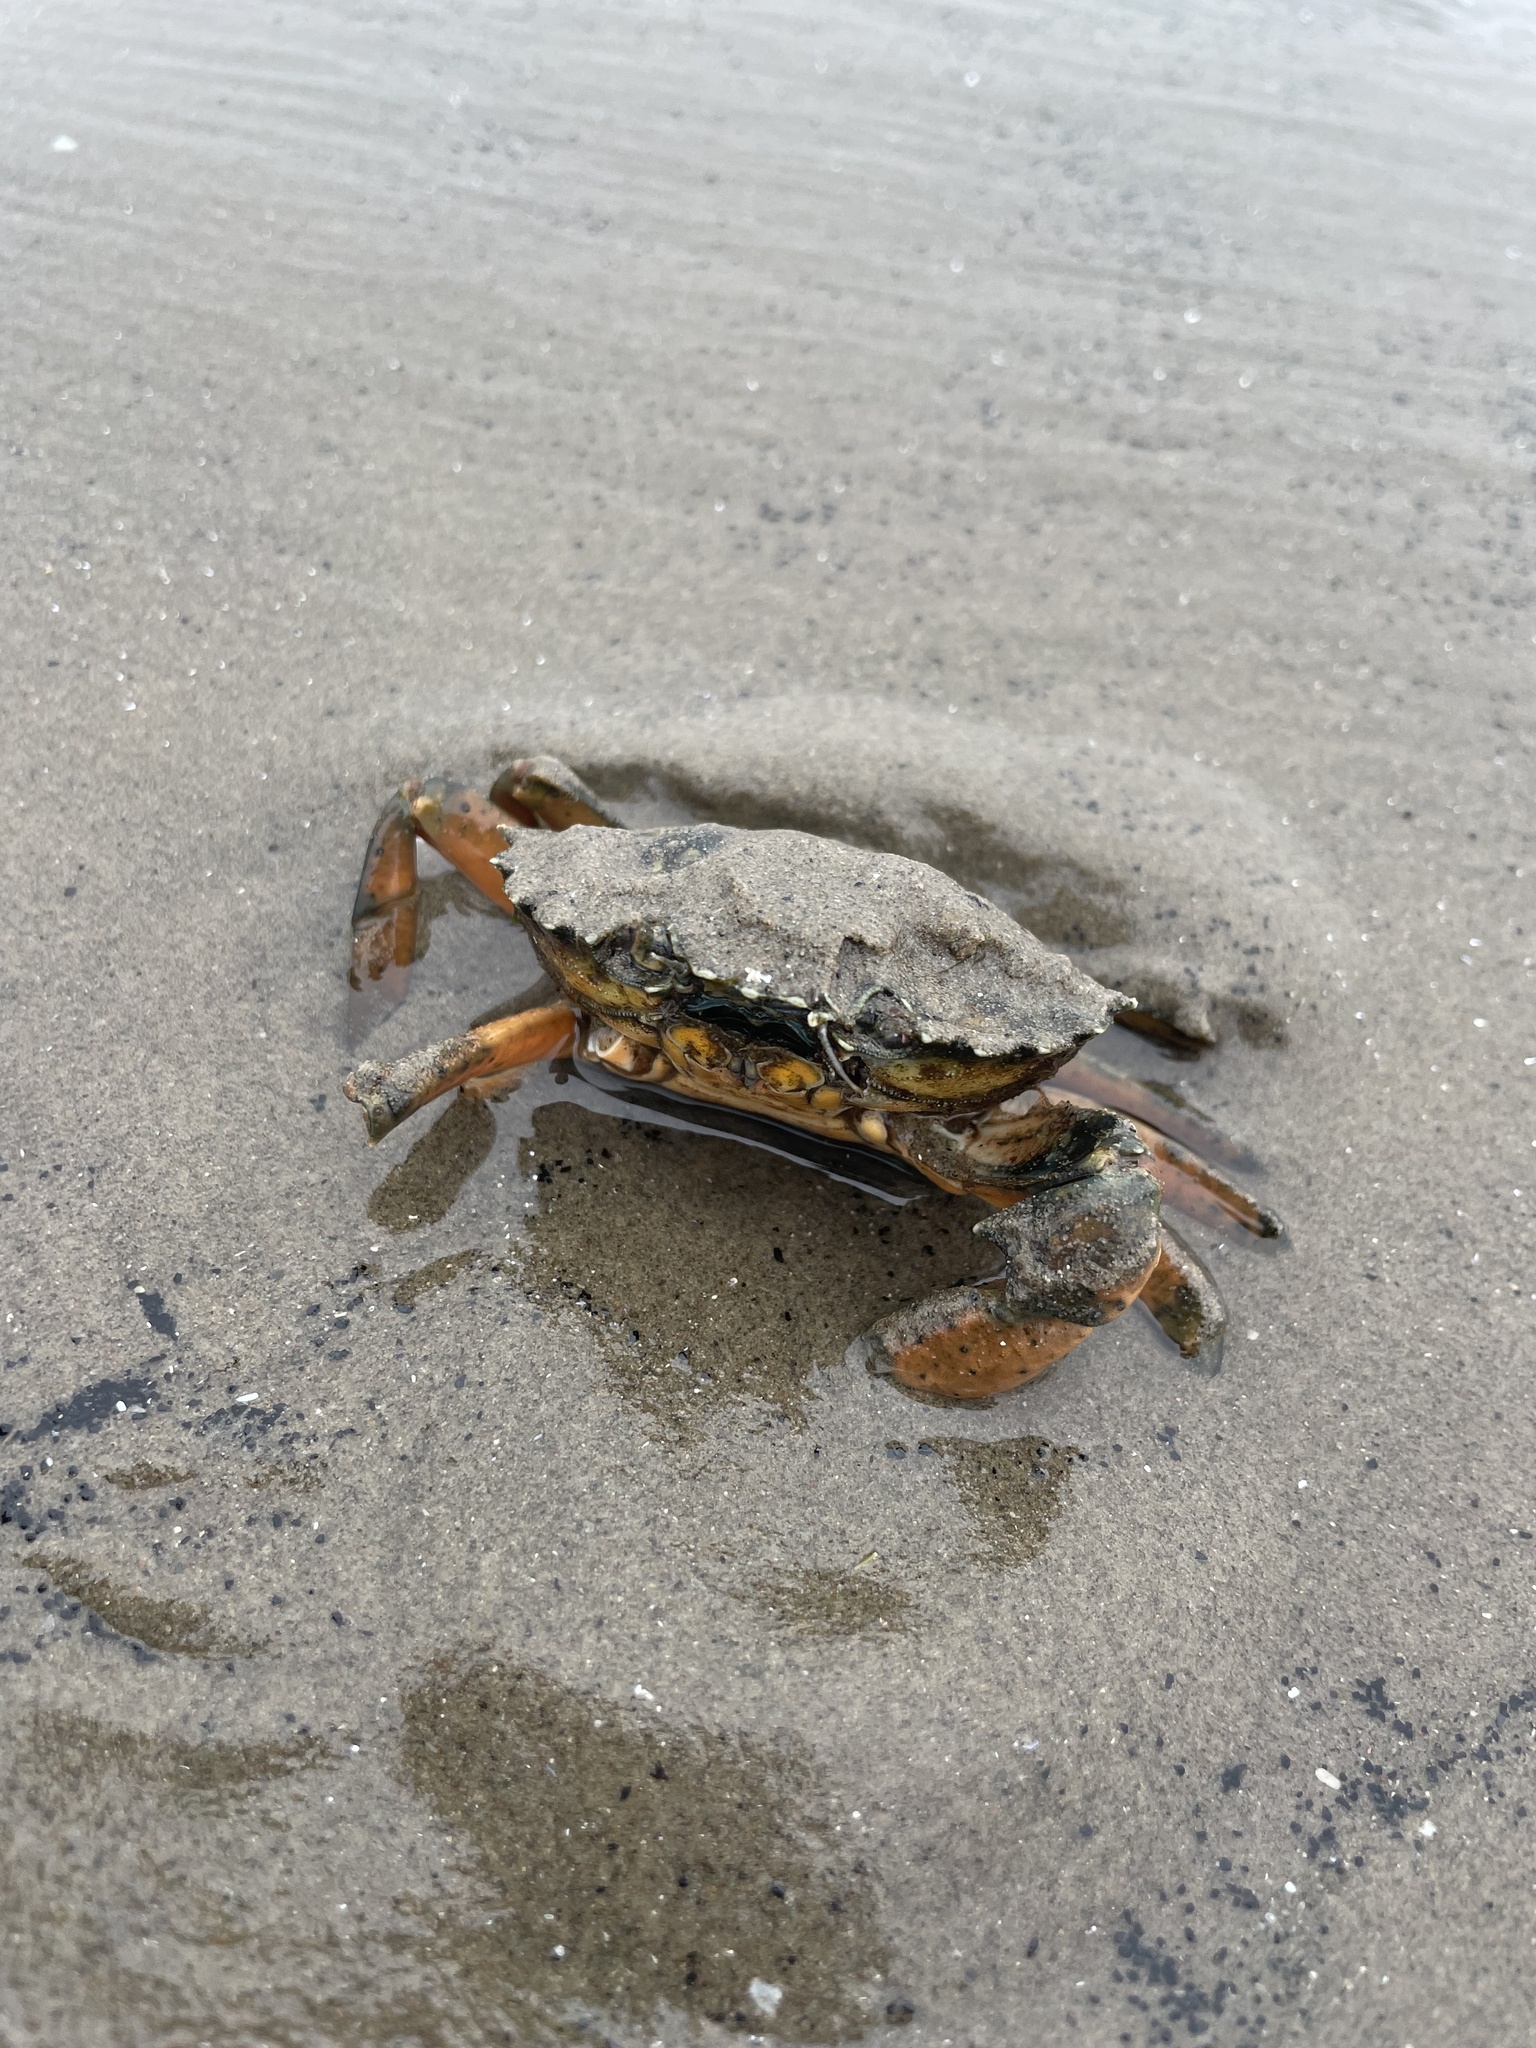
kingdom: Animalia
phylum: Arthropoda
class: Malacostraca
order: Decapoda
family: Carcinidae
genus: Carcinus
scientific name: Carcinus maenas
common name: European green crab
